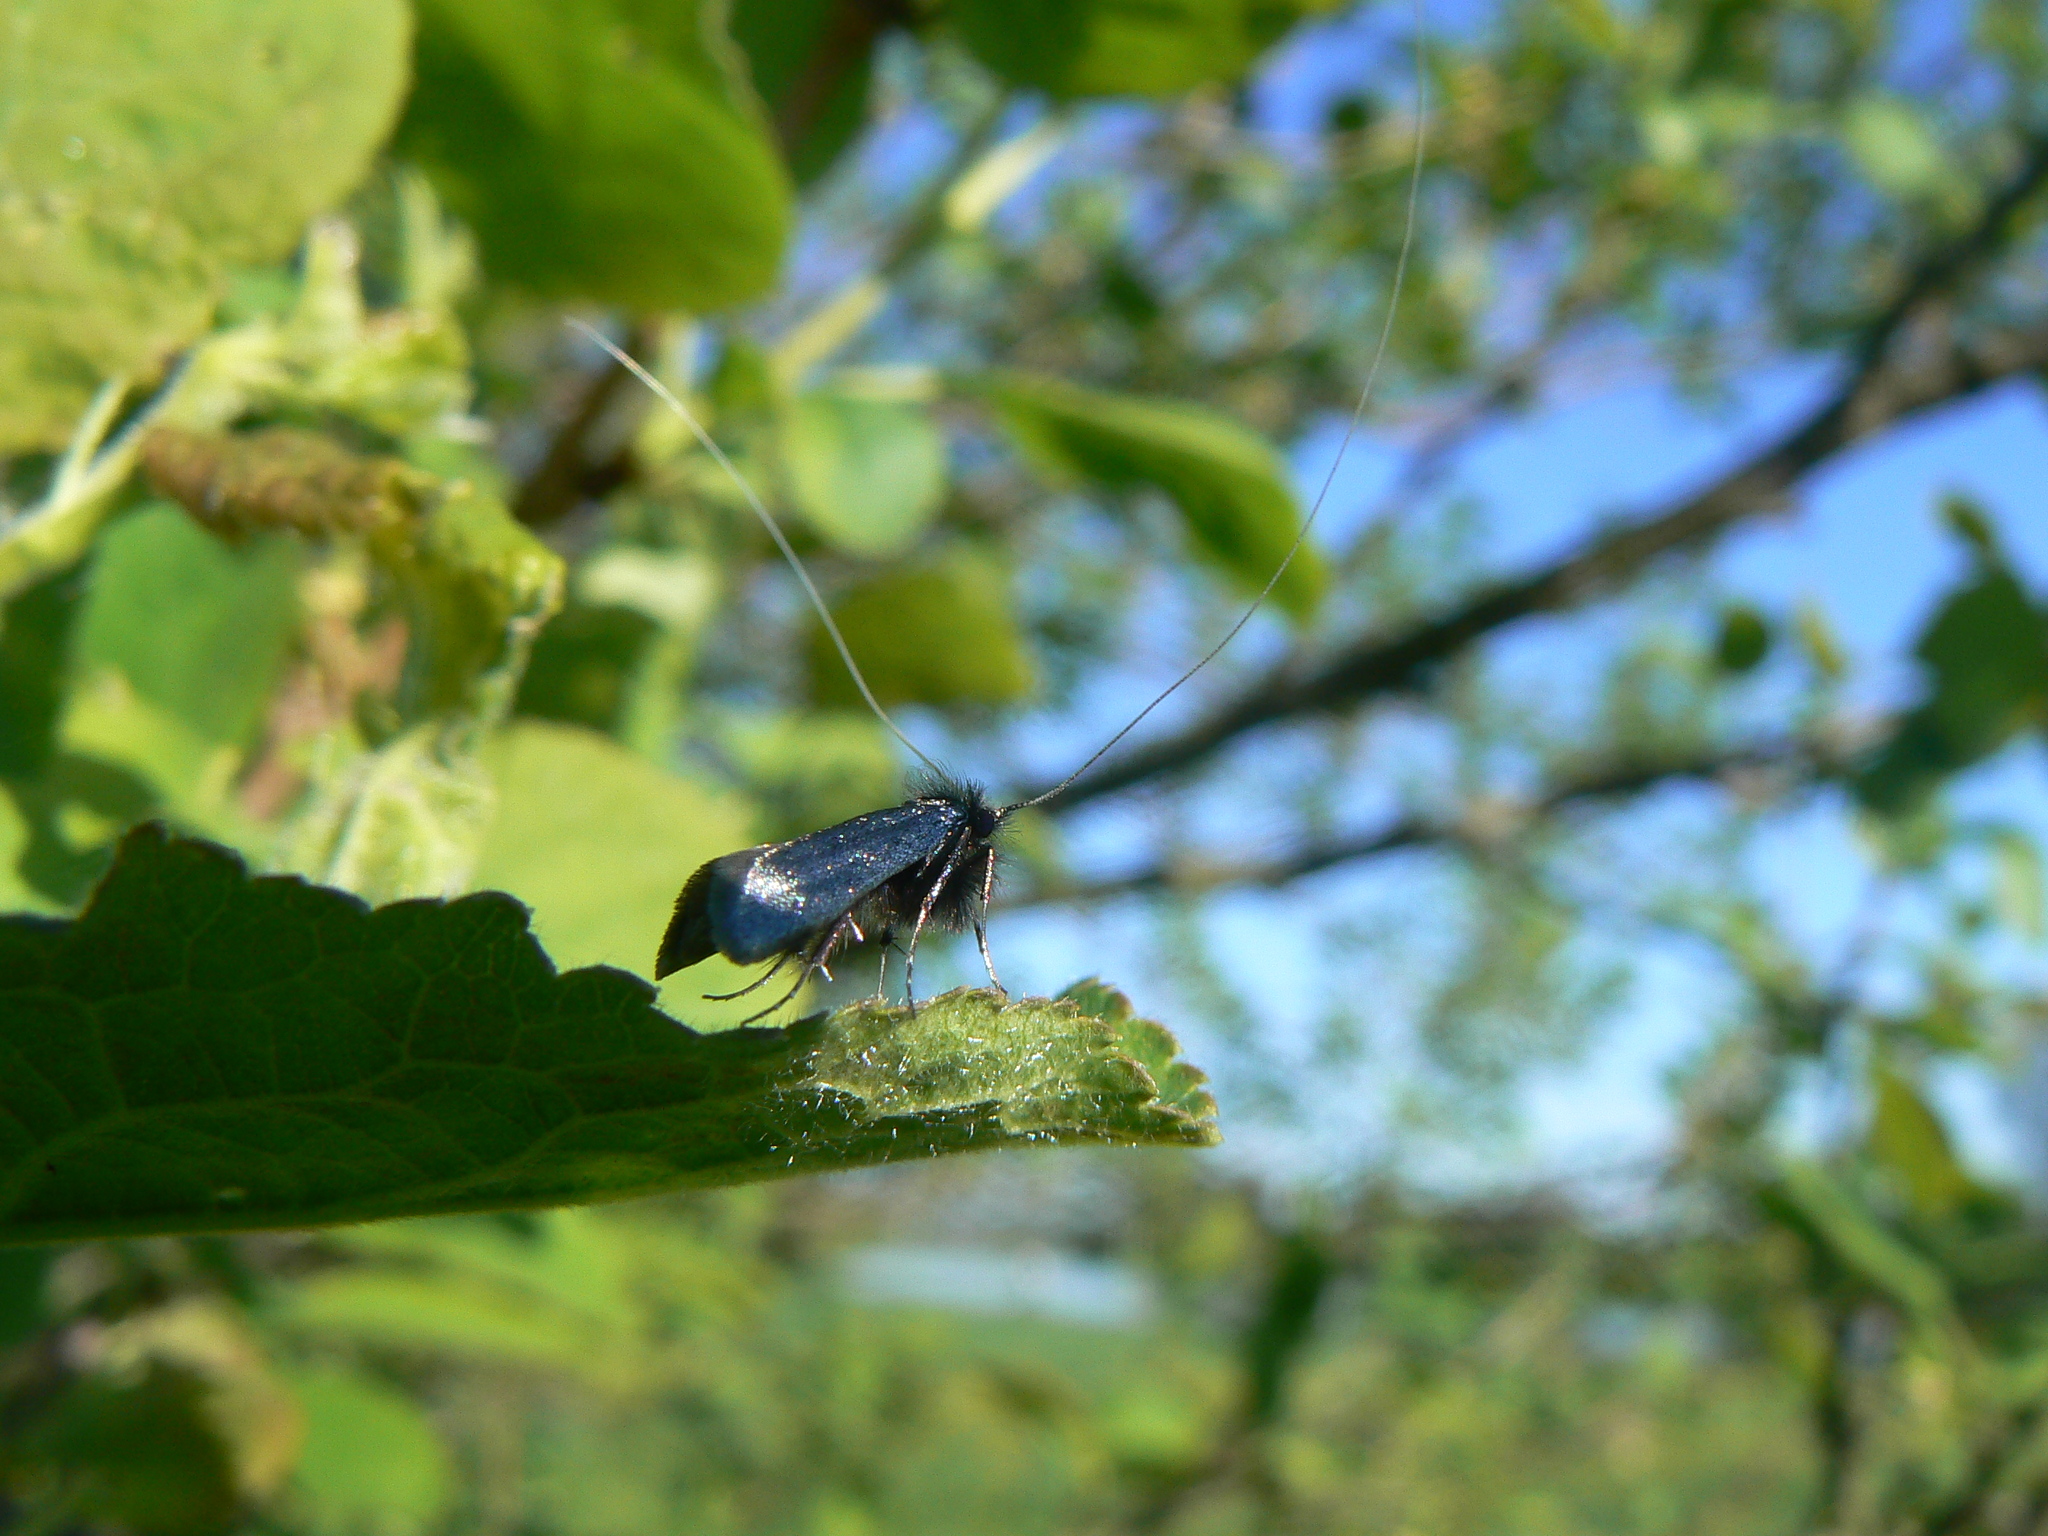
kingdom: Animalia
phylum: Arthropoda
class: Insecta
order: Lepidoptera
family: Adelidae
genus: Adela
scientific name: Adela viridella
